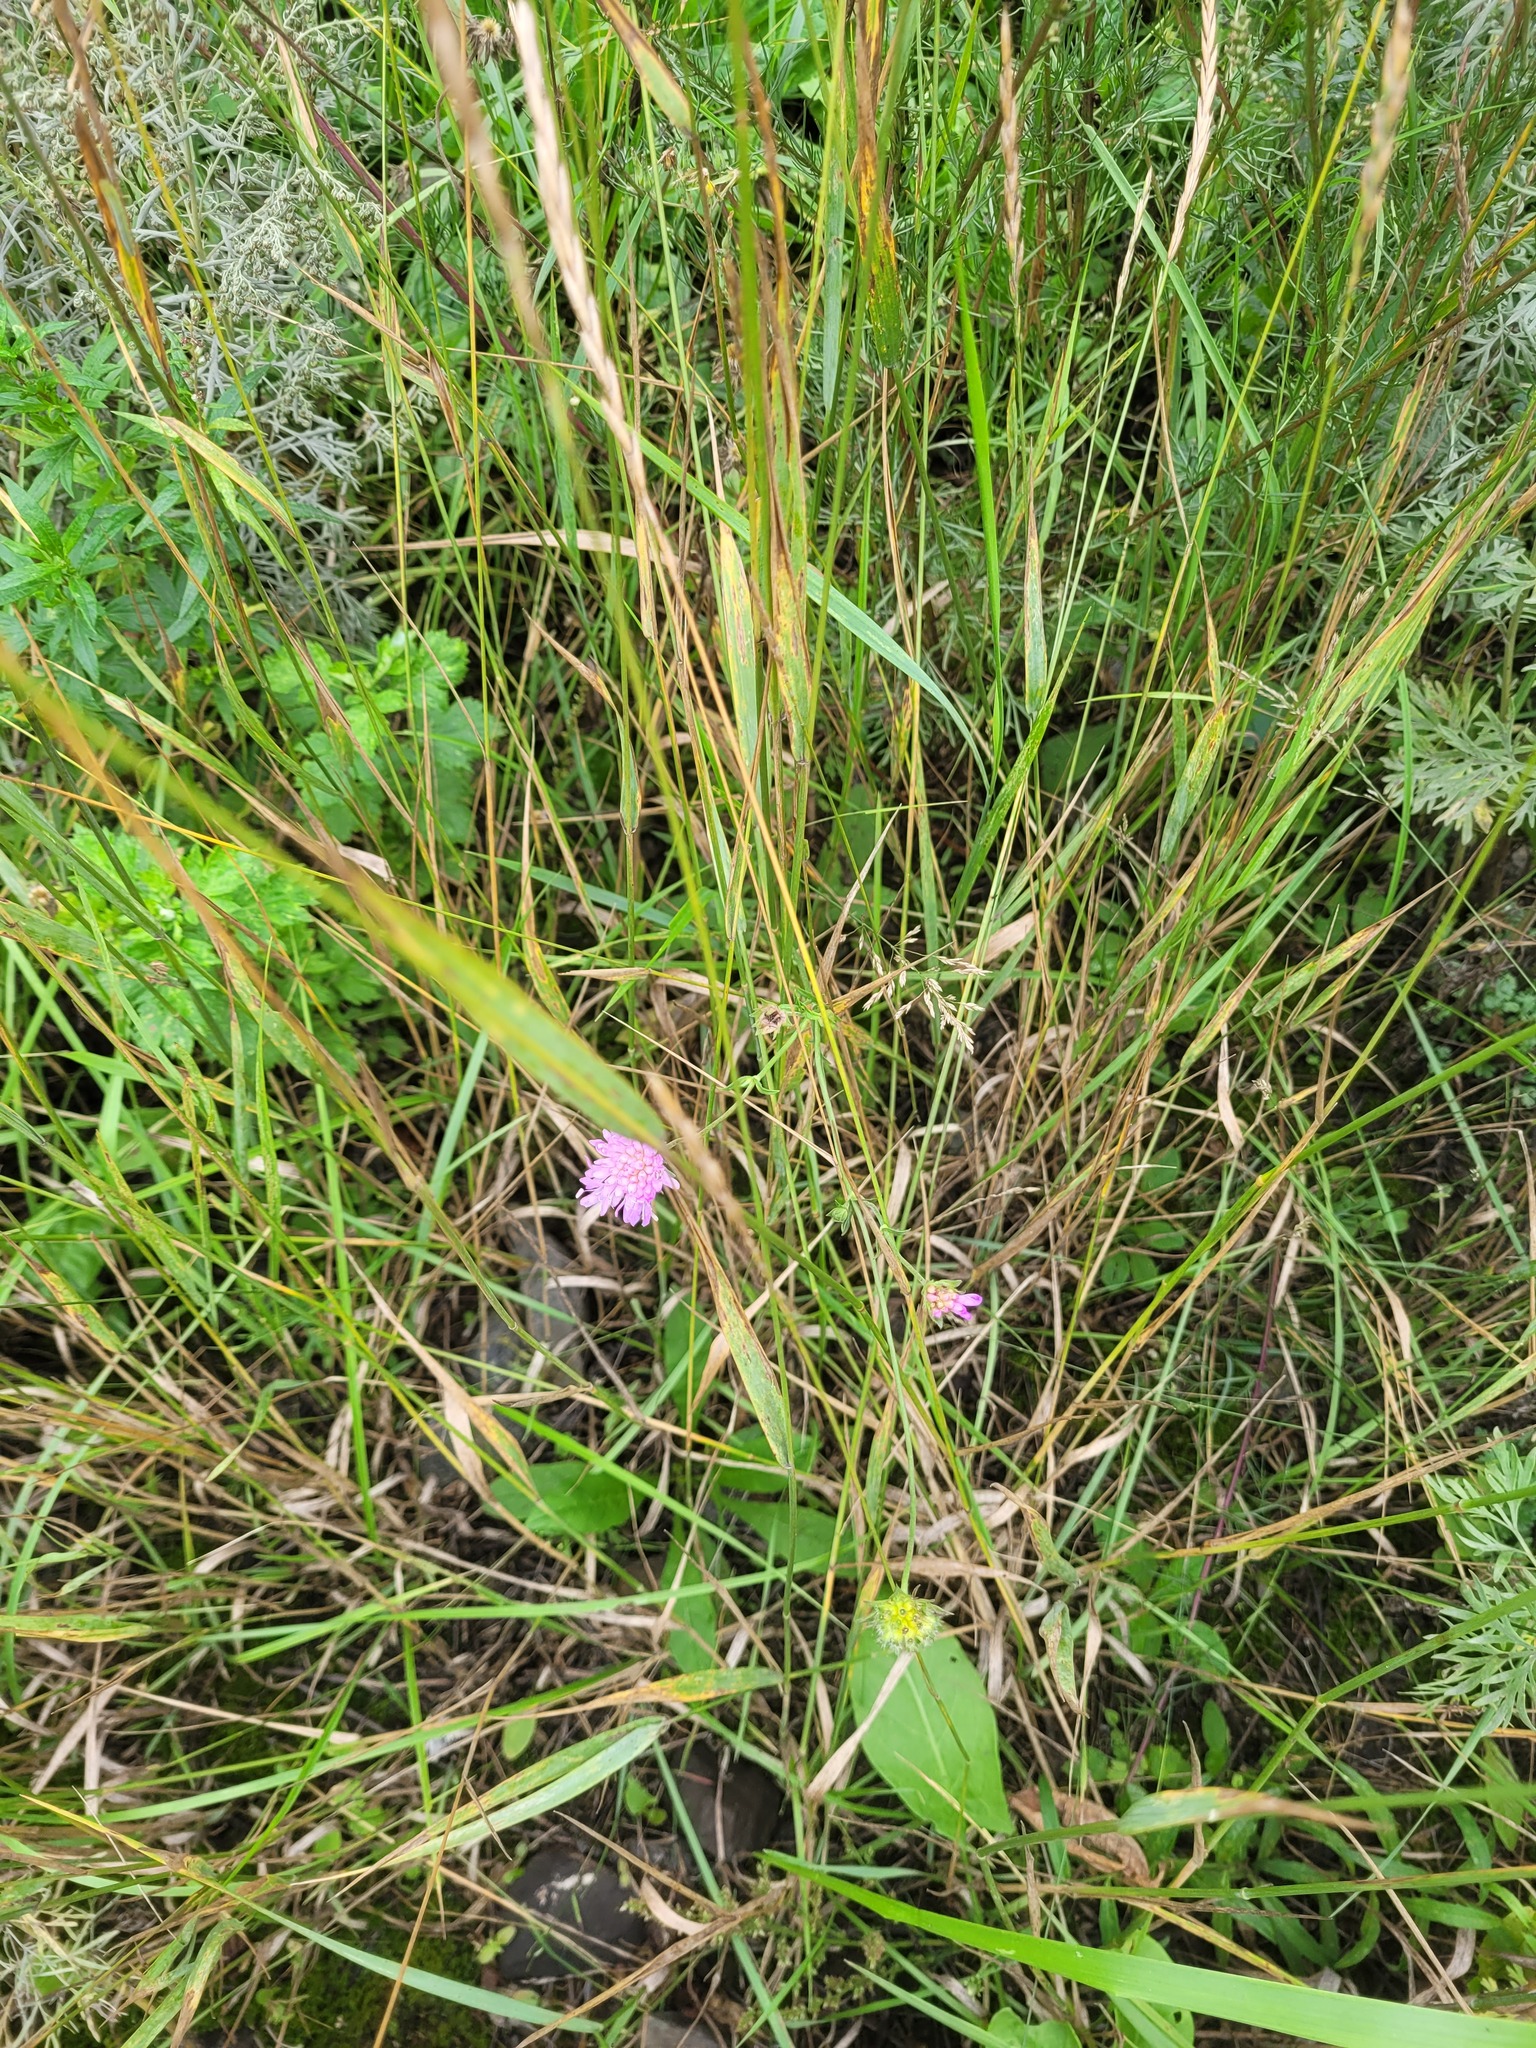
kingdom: Plantae
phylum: Tracheophyta
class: Magnoliopsida
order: Dipsacales
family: Caprifoliaceae
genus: Knautia
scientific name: Knautia arvensis
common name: Field scabiosa
